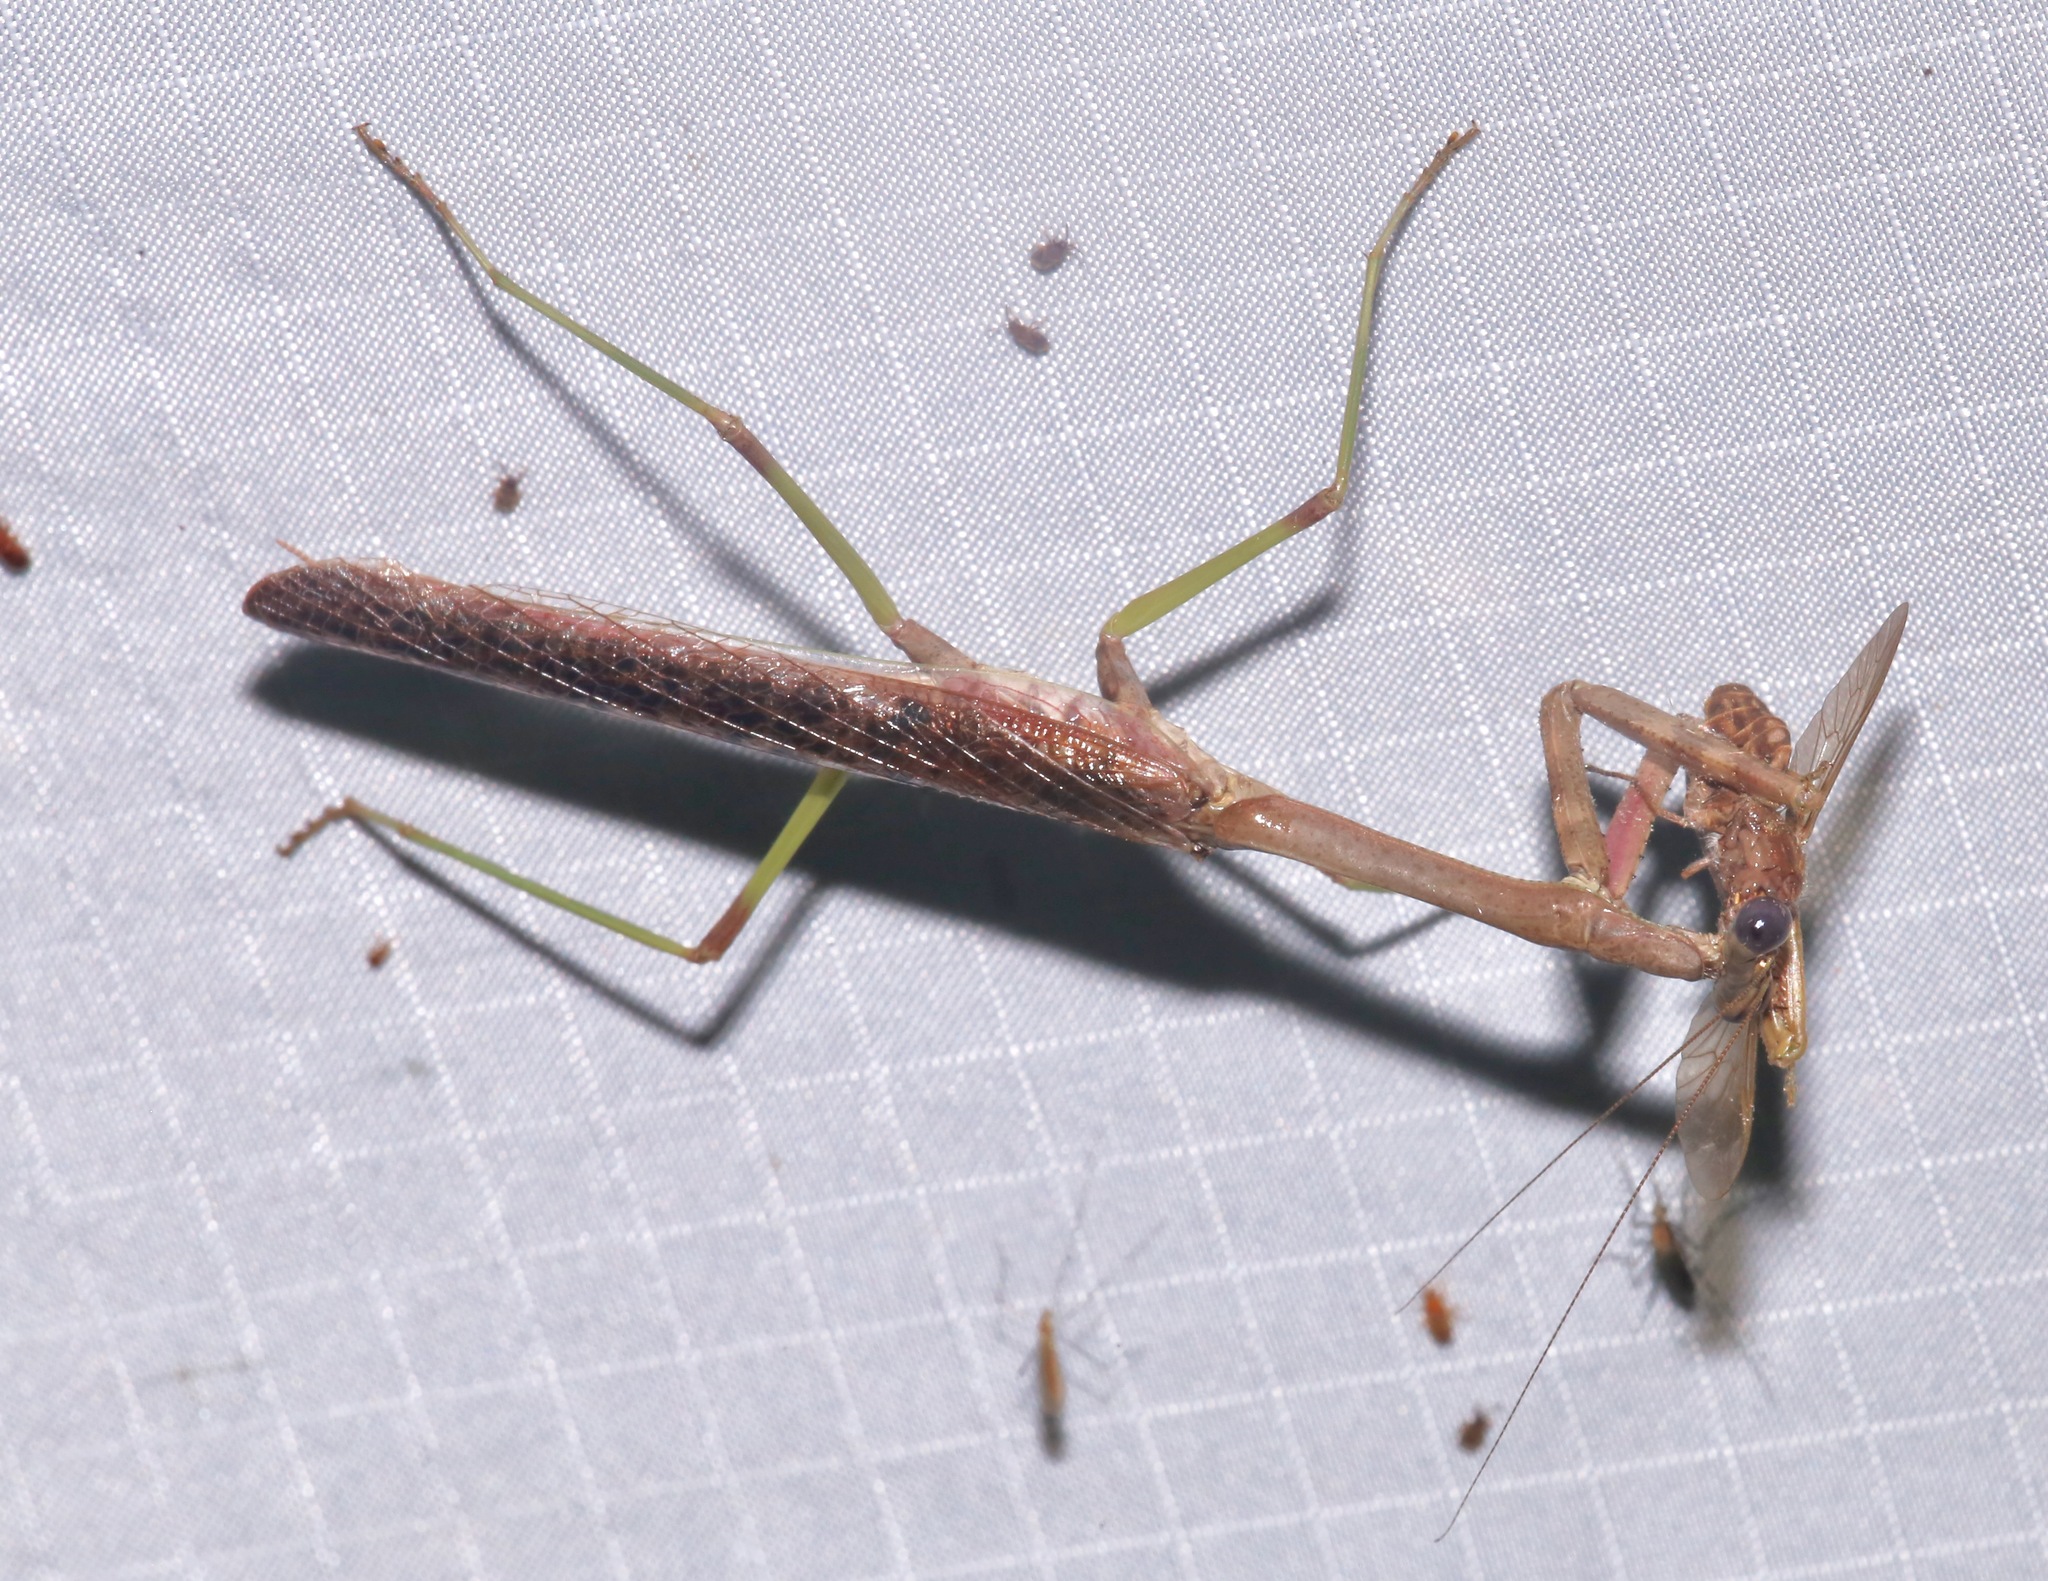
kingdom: Animalia
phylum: Arthropoda
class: Insecta
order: Mantodea
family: Mantidae
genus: Stagmomantis
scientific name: Stagmomantis carolina
